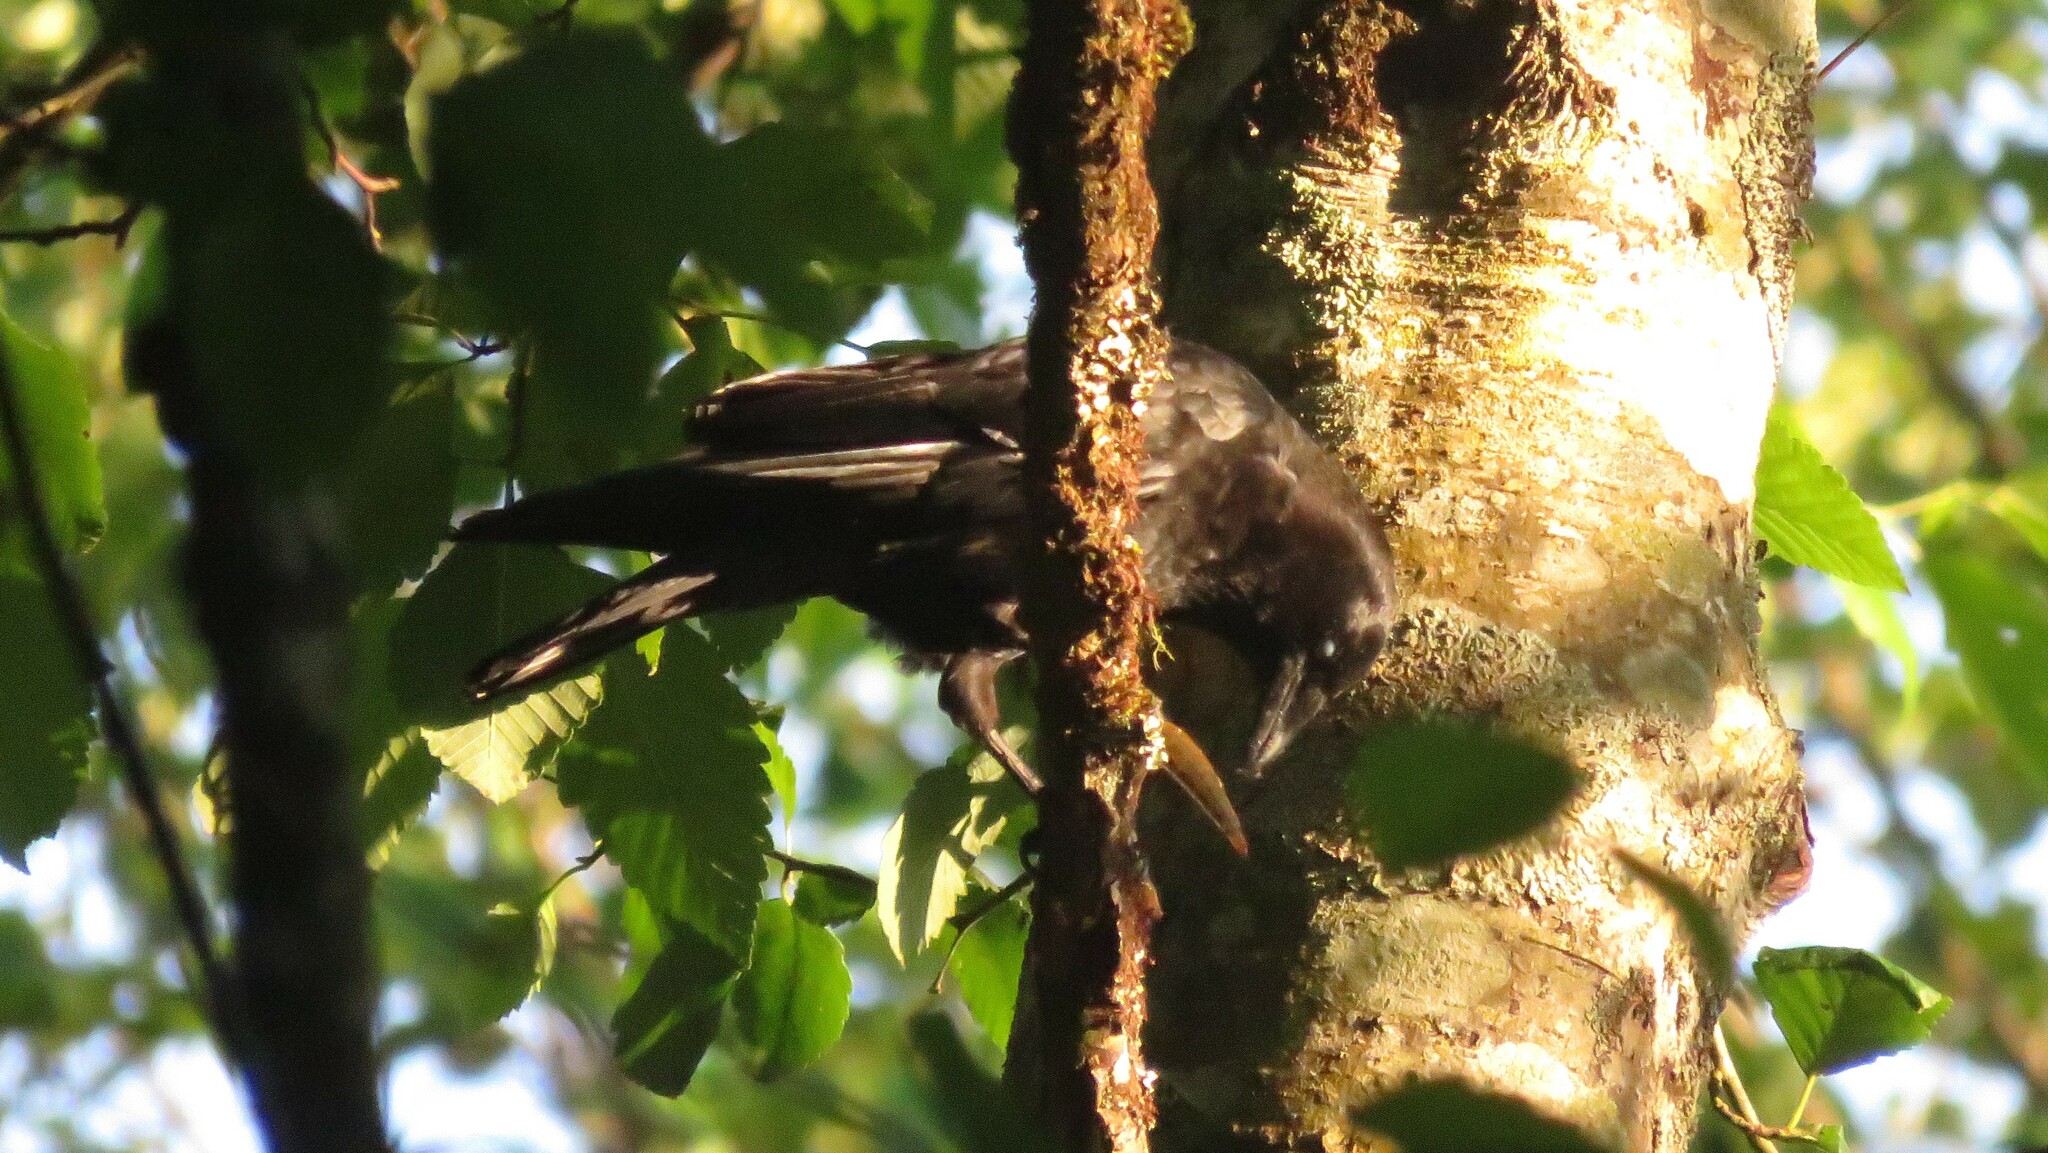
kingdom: Animalia
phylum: Chordata
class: Aves
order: Passeriformes
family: Corvidae
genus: Corvus
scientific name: Corvus brachyrhynchos
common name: American crow
